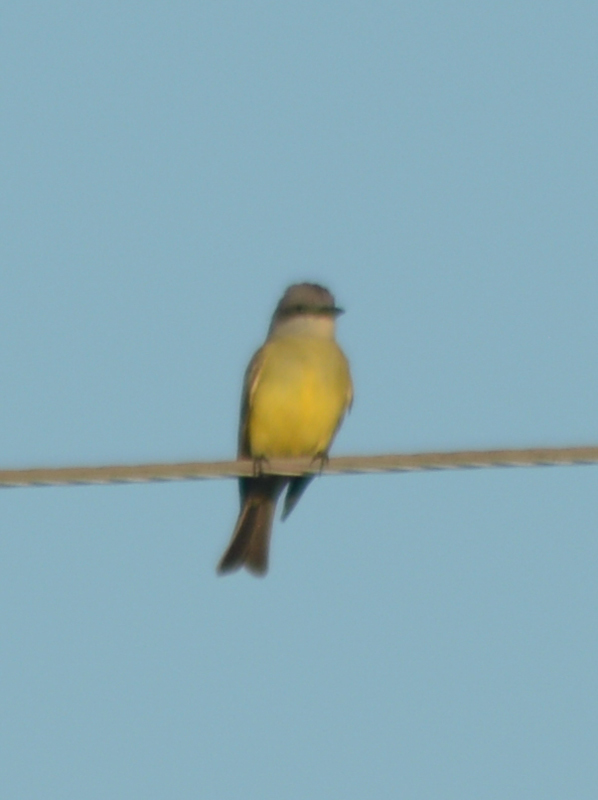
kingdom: Animalia
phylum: Chordata
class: Aves
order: Passeriformes
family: Tyrannidae
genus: Tyrannus
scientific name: Tyrannus melancholicus
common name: Tropical kingbird
